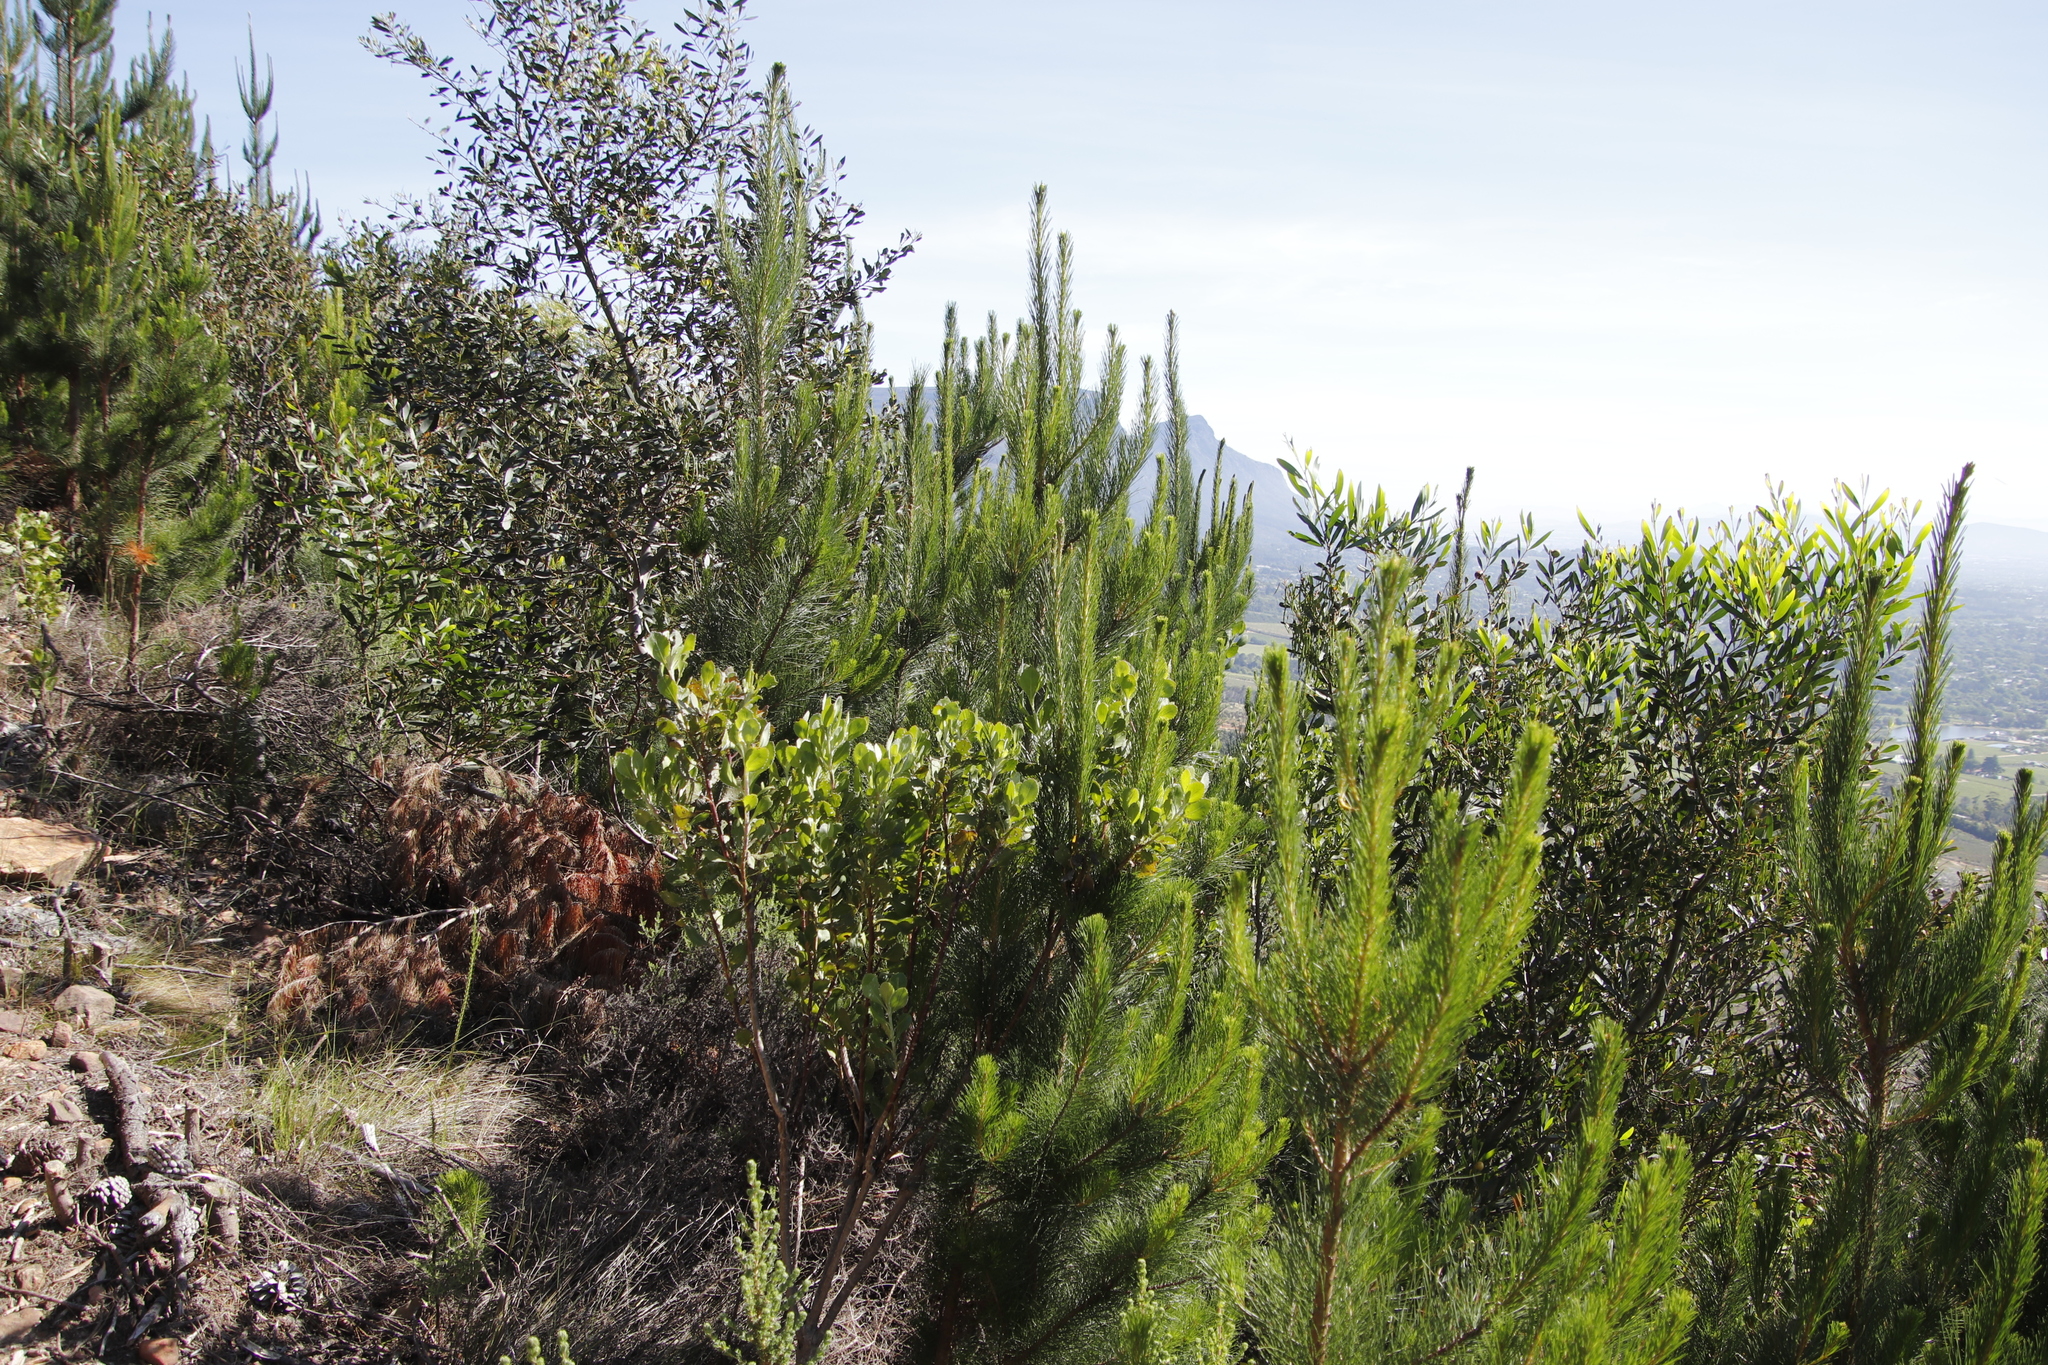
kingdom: Plantae
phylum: Tracheophyta
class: Pinopsida
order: Pinales
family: Pinaceae
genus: Pinus
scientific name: Pinus radiata
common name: Monterey pine
